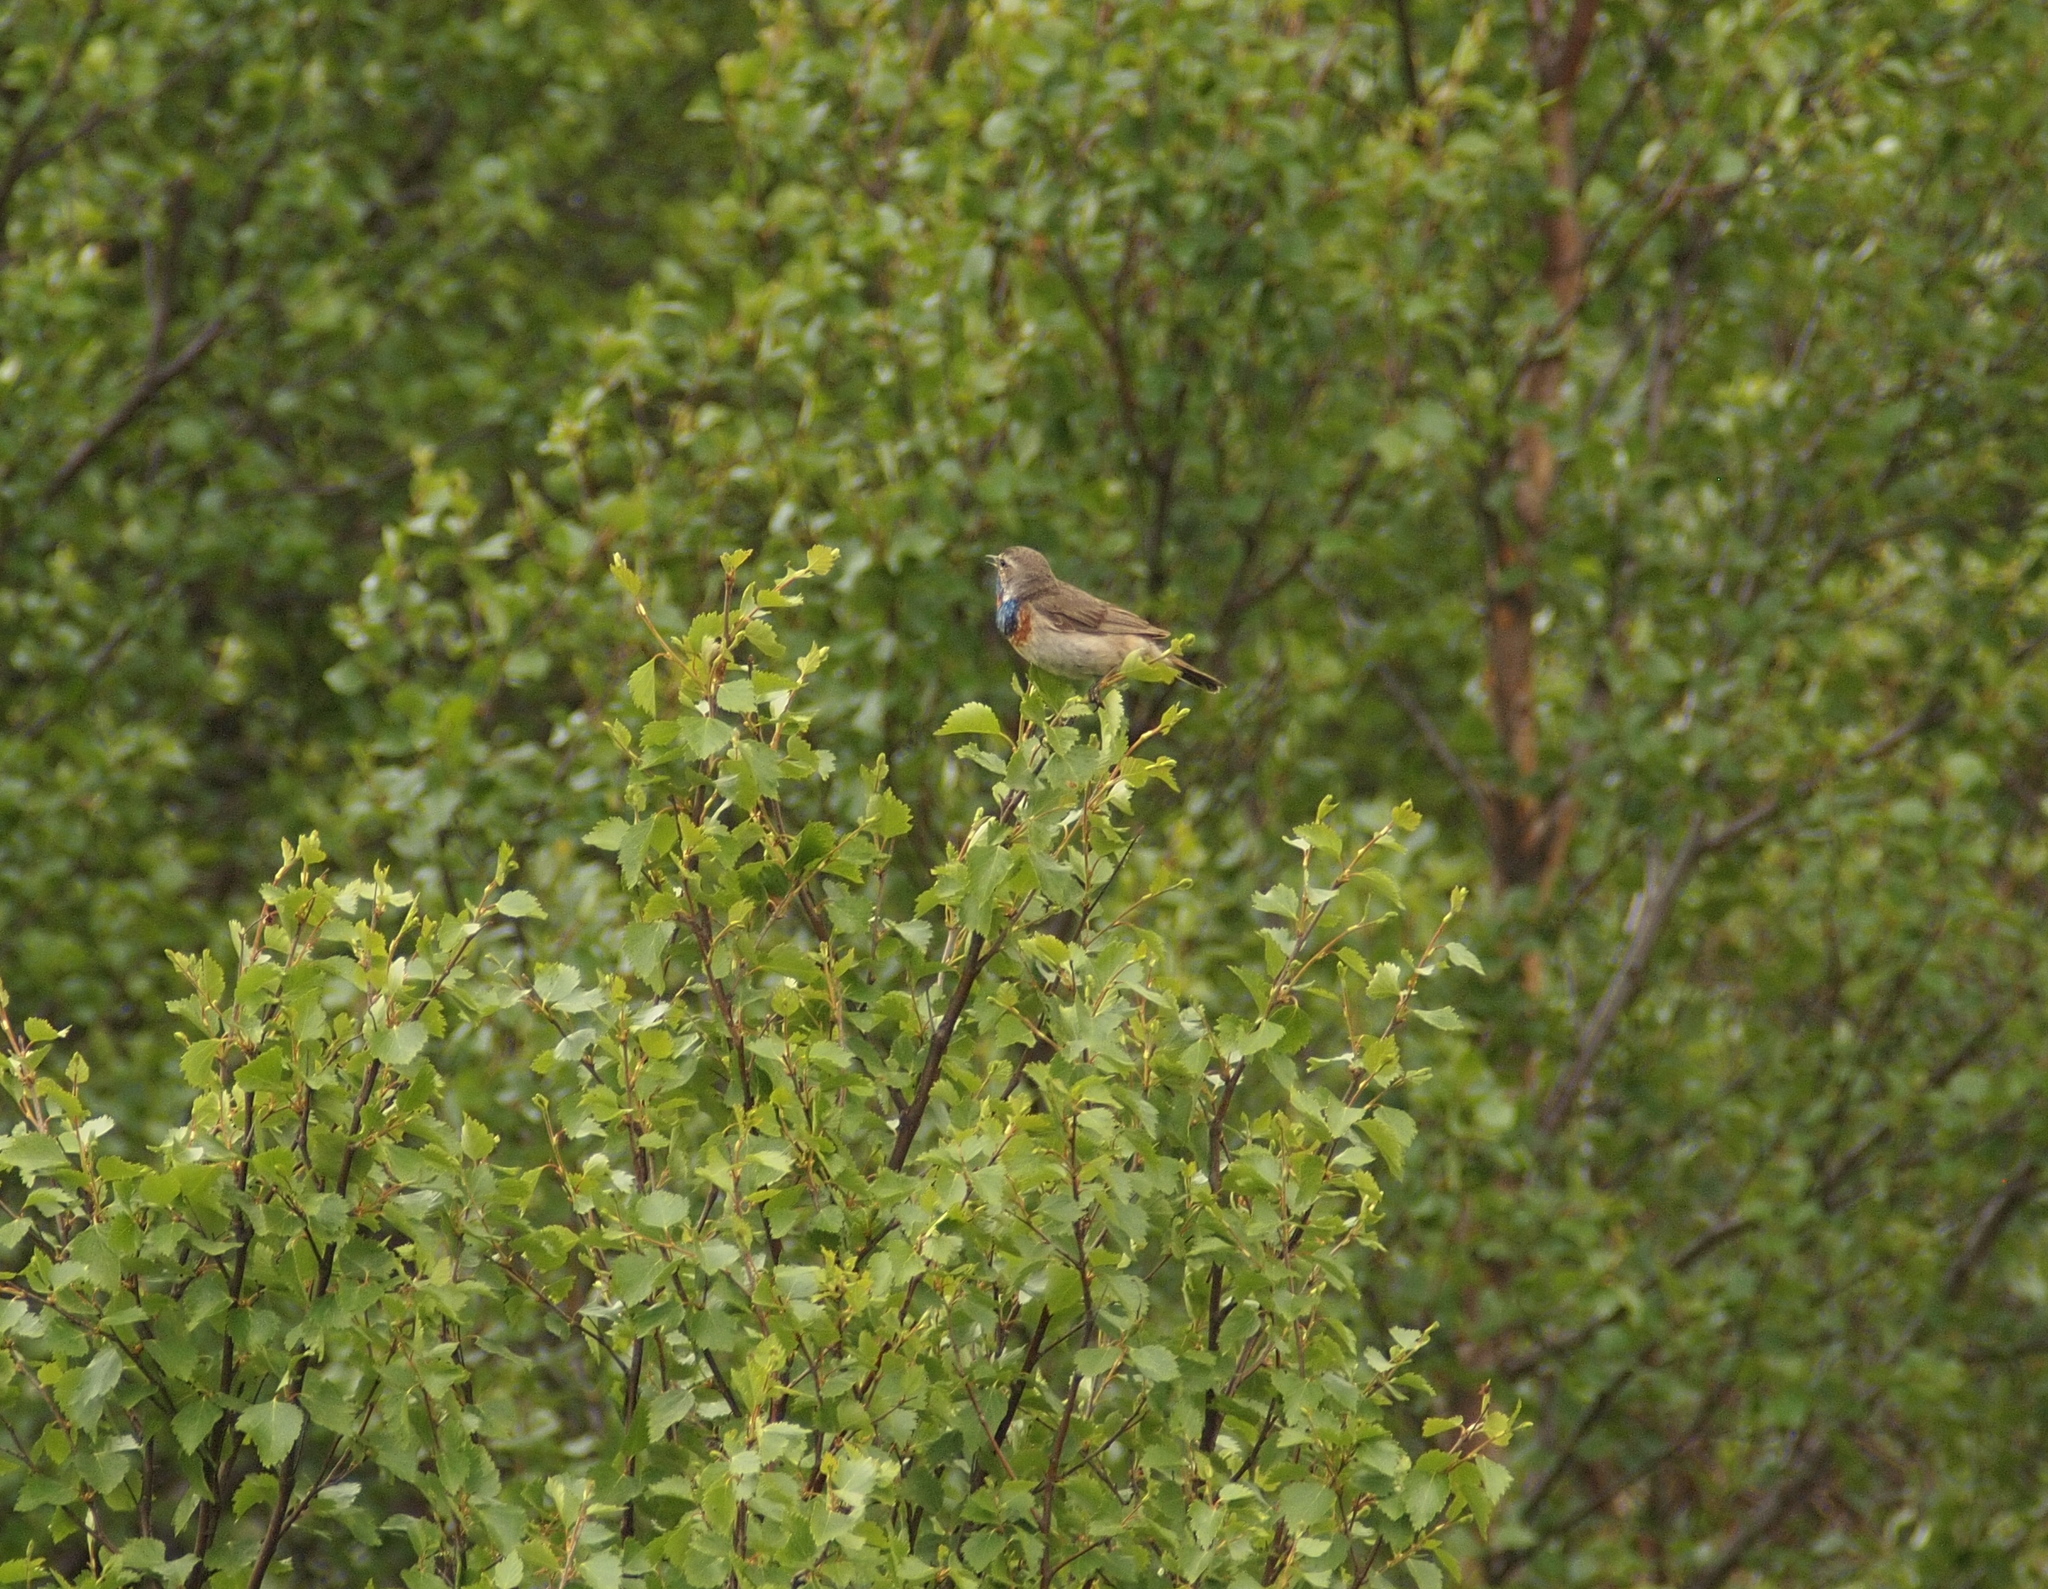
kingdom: Animalia
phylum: Chordata
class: Aves
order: Passeriformes
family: Muscicapidae
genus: Luscinia
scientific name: Luscinia svecica
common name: Bluethroat
